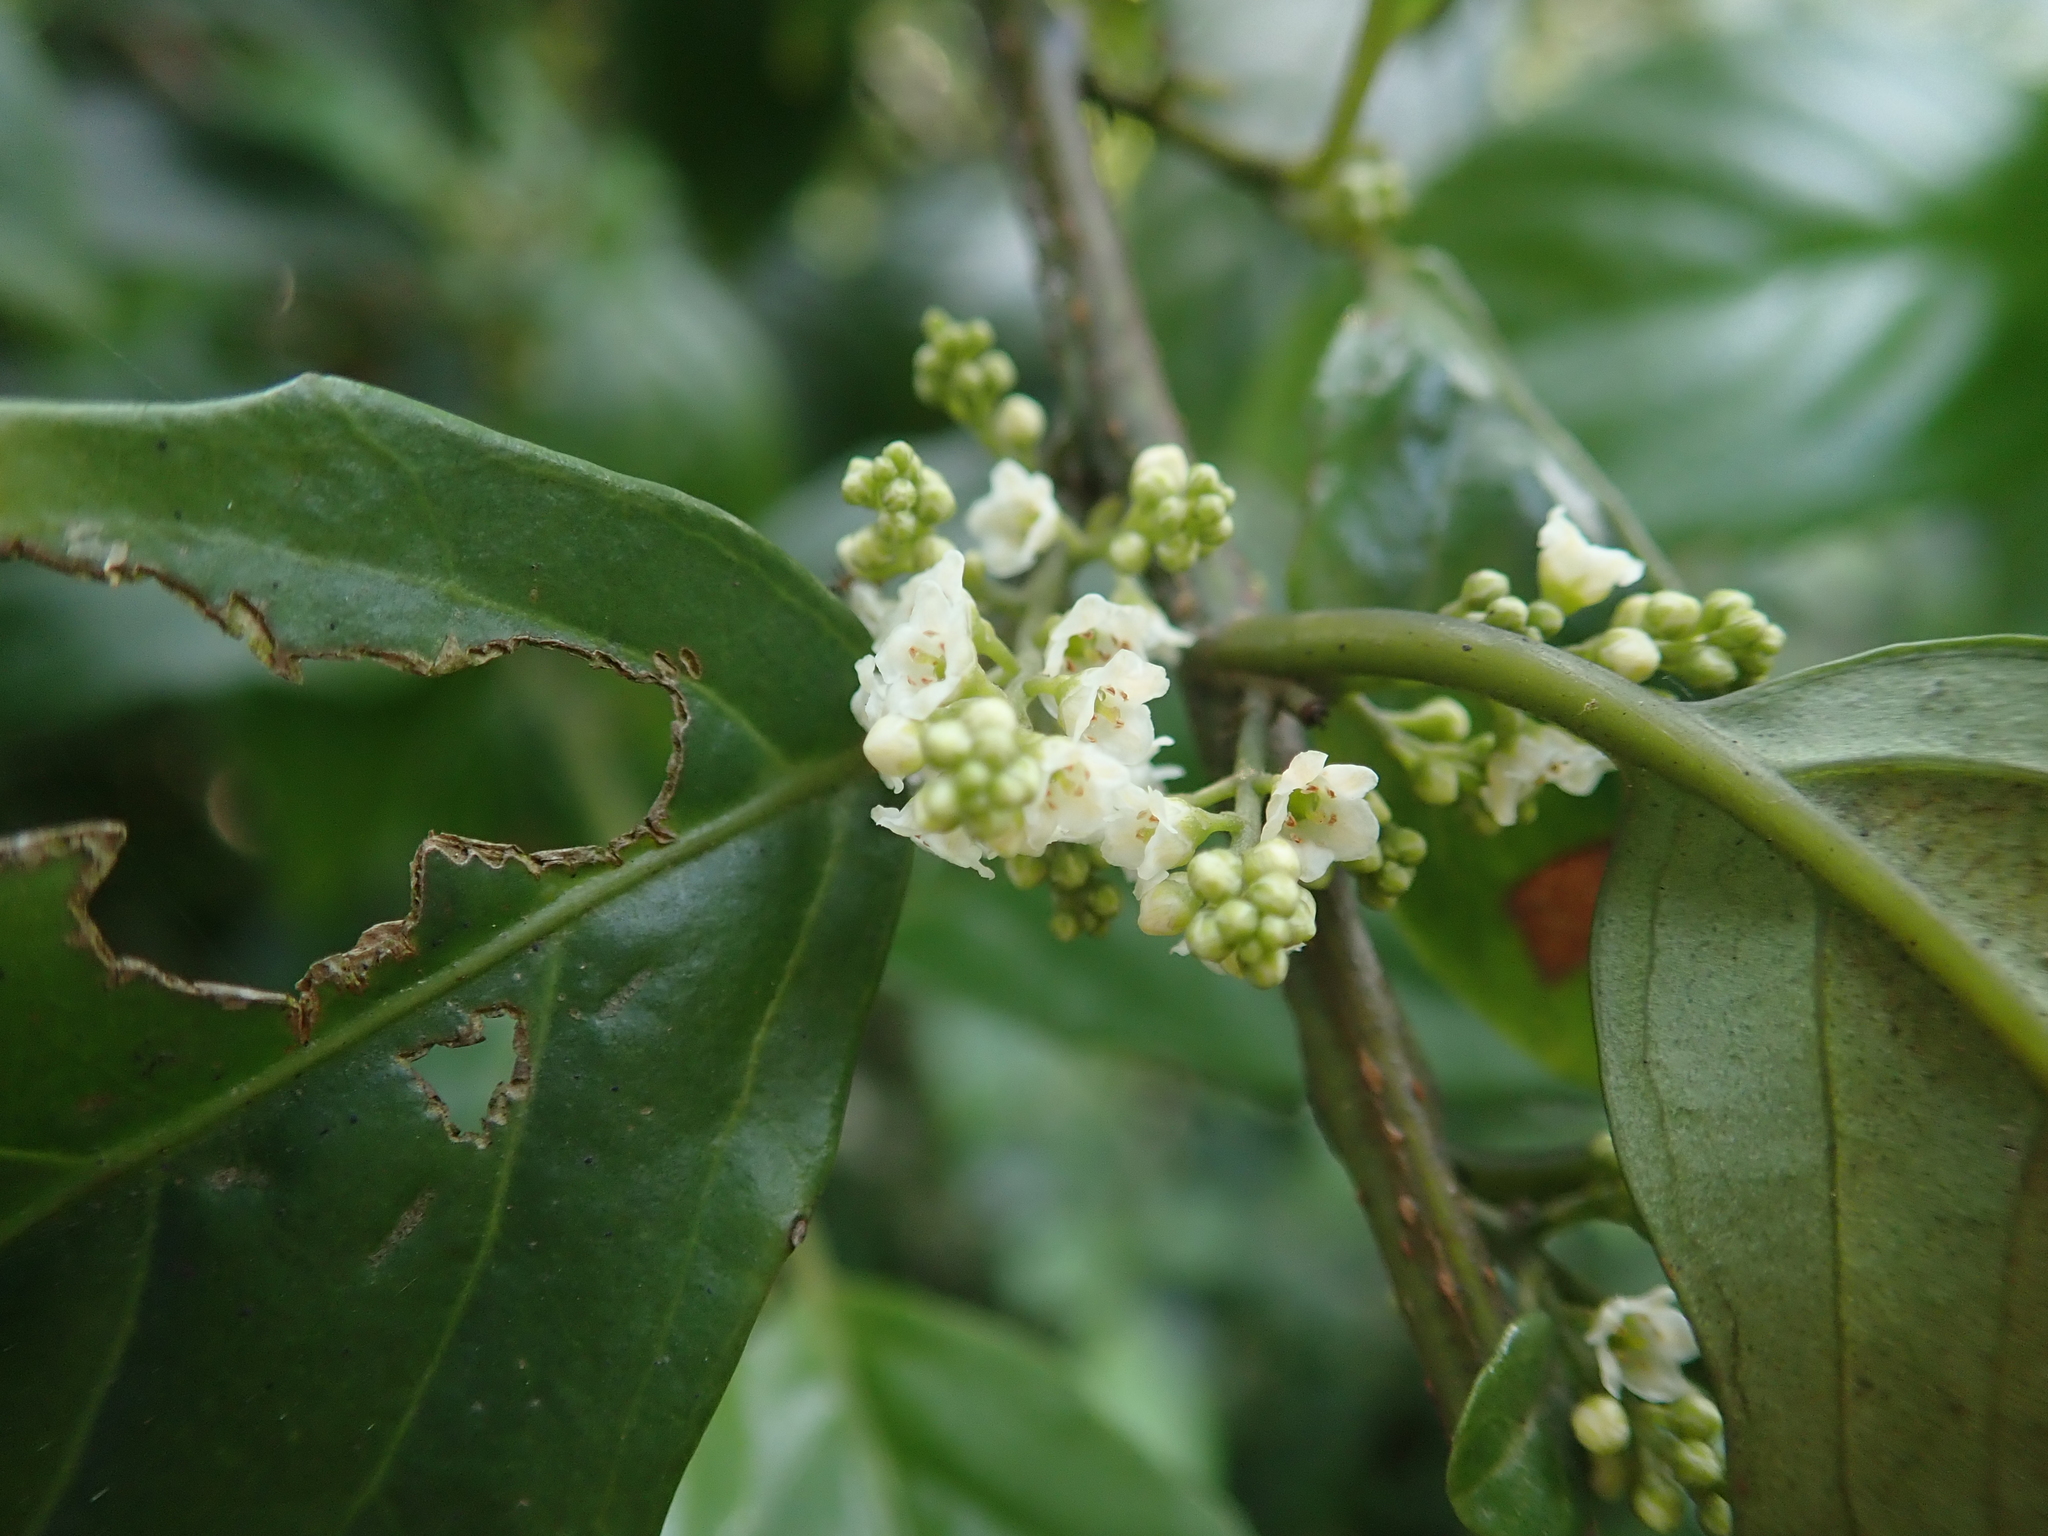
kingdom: Plantae
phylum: Tracheophyta
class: Magnoliopsida
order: Ericales
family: Primulaceae
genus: Maesa
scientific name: Maesa perlaria
